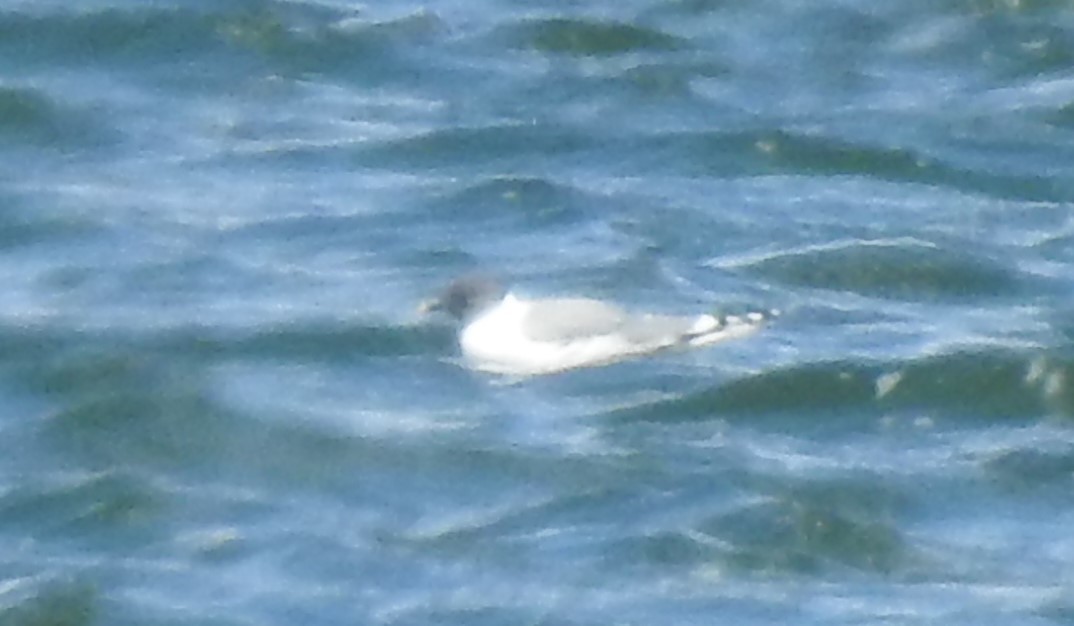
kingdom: Animalia
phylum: Chordata
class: Aves
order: Charadriiformes
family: Laridae
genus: Xema
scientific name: Xema sabini
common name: Sabine's gull
